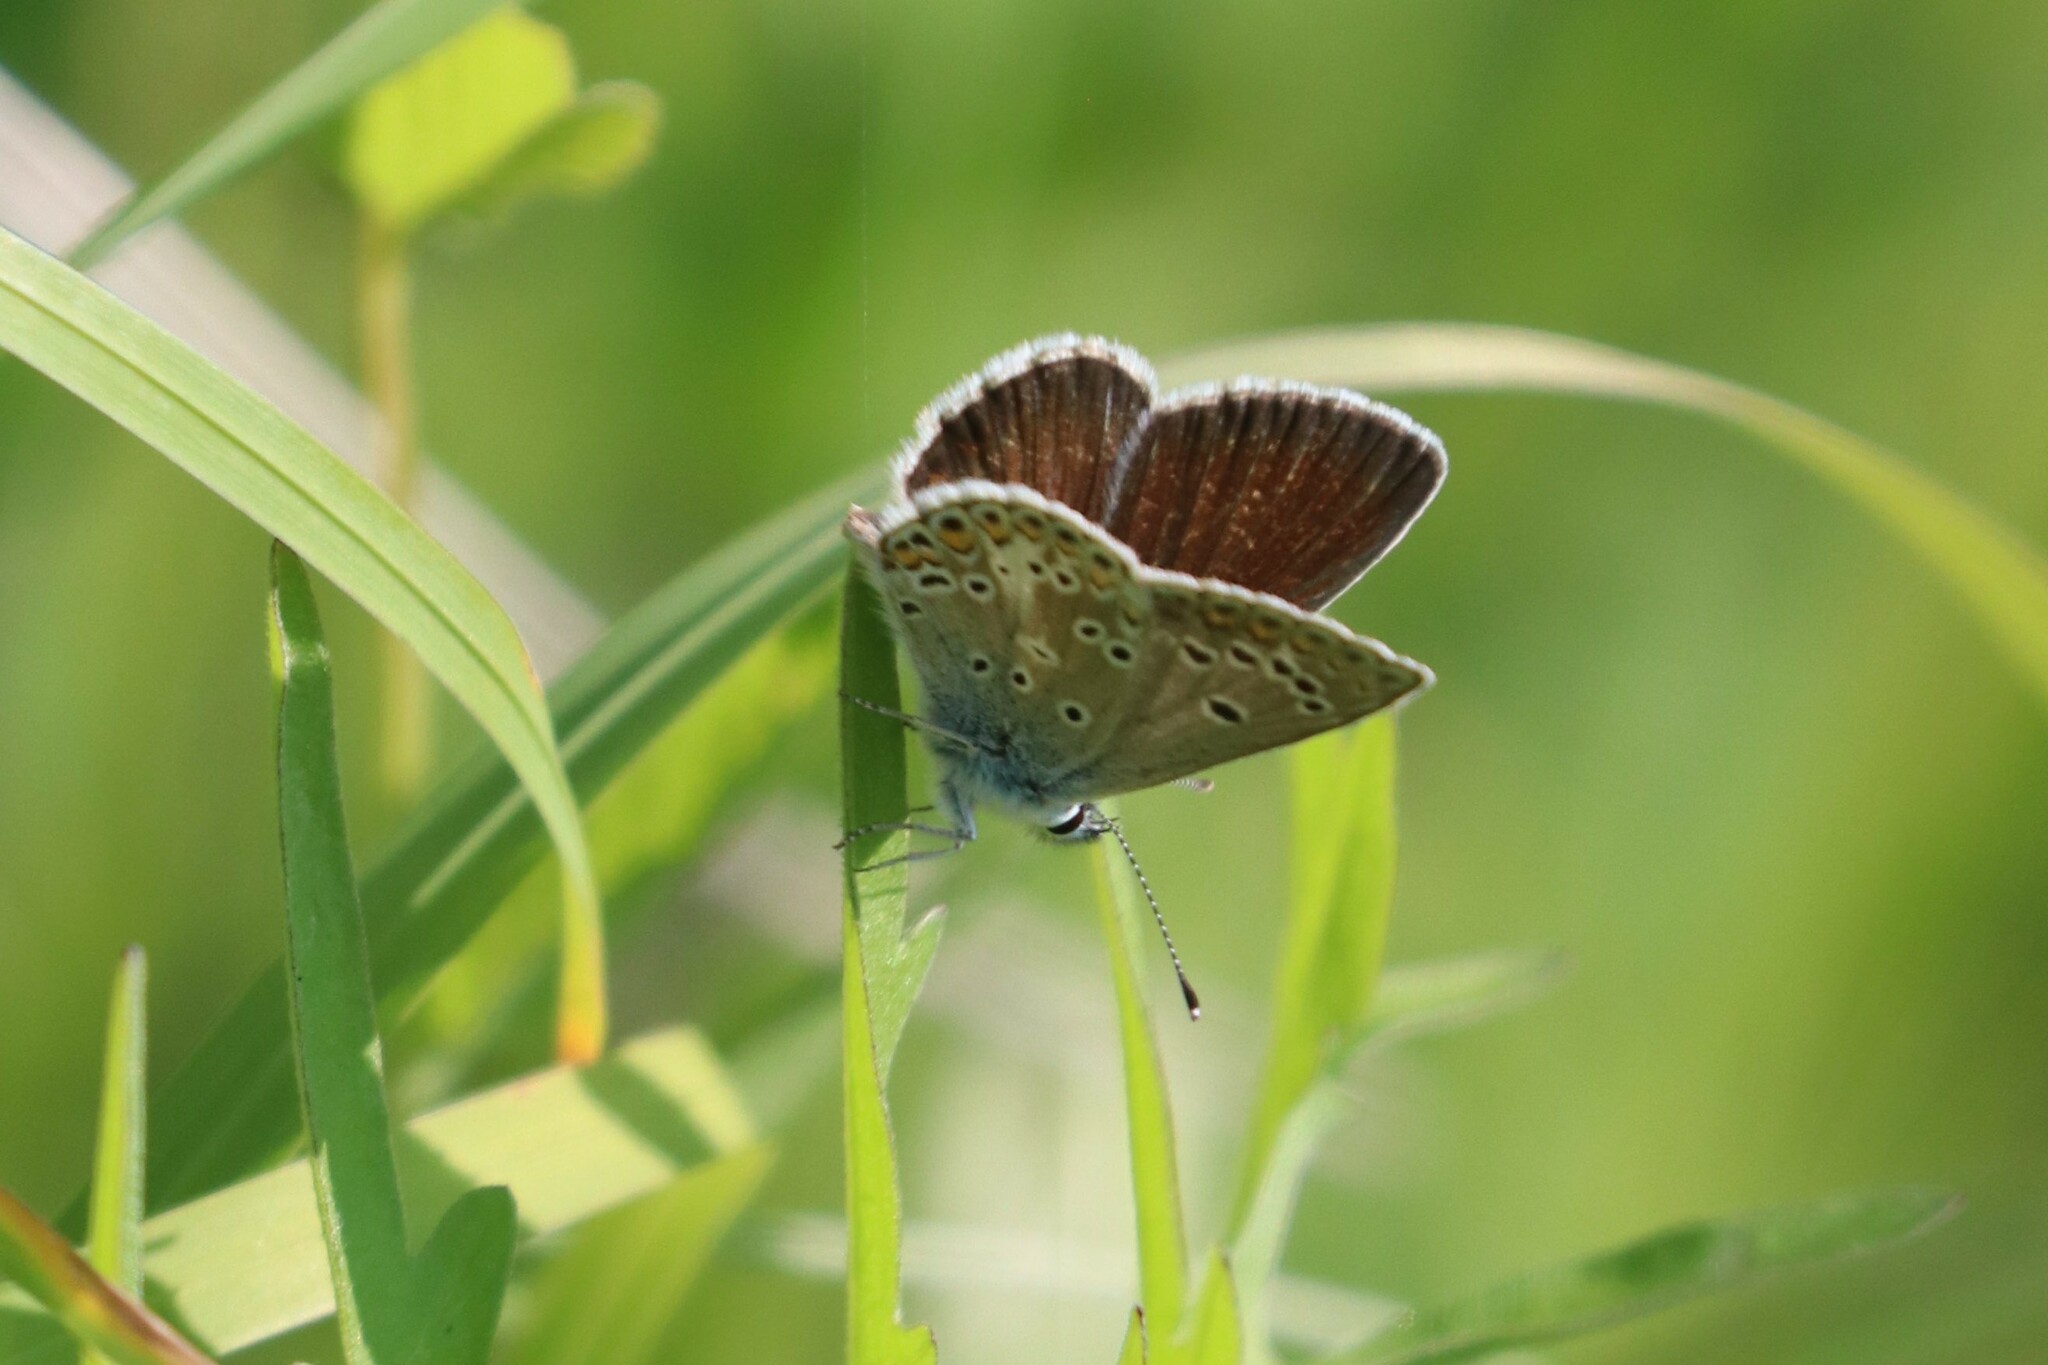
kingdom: Animalia
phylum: Arthropoda
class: Insecta
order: Lepidoptera
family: Lycaenidae
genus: Aricia
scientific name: Aricia artaxerxes
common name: Northern brown argus
